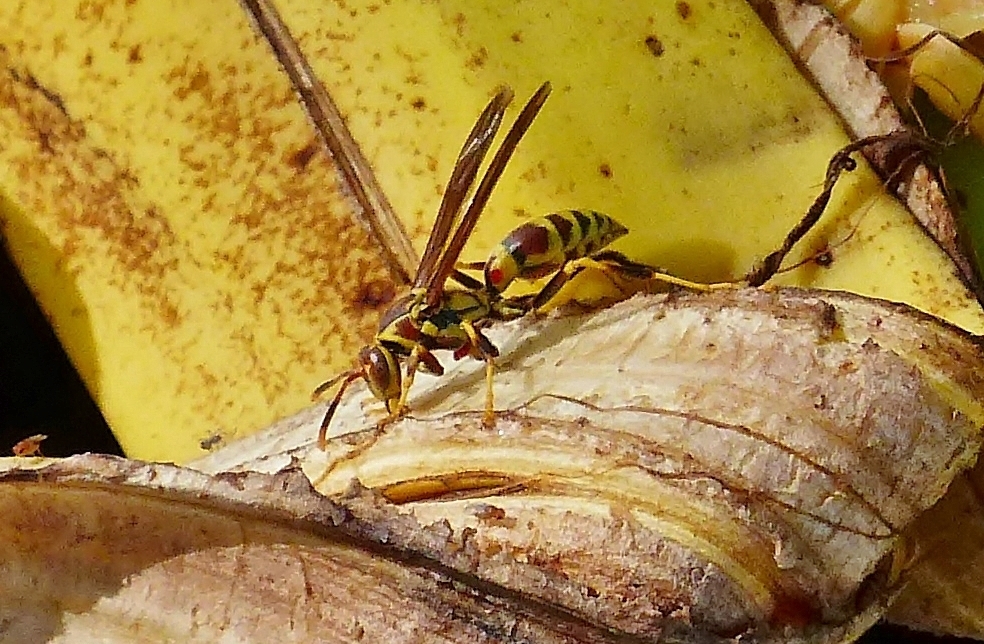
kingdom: Animalia
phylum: Arthropoda
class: Insecta
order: Hymenoptera
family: Eumenidae
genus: Polistes
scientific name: Polistes exclamans
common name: Paper wasp
